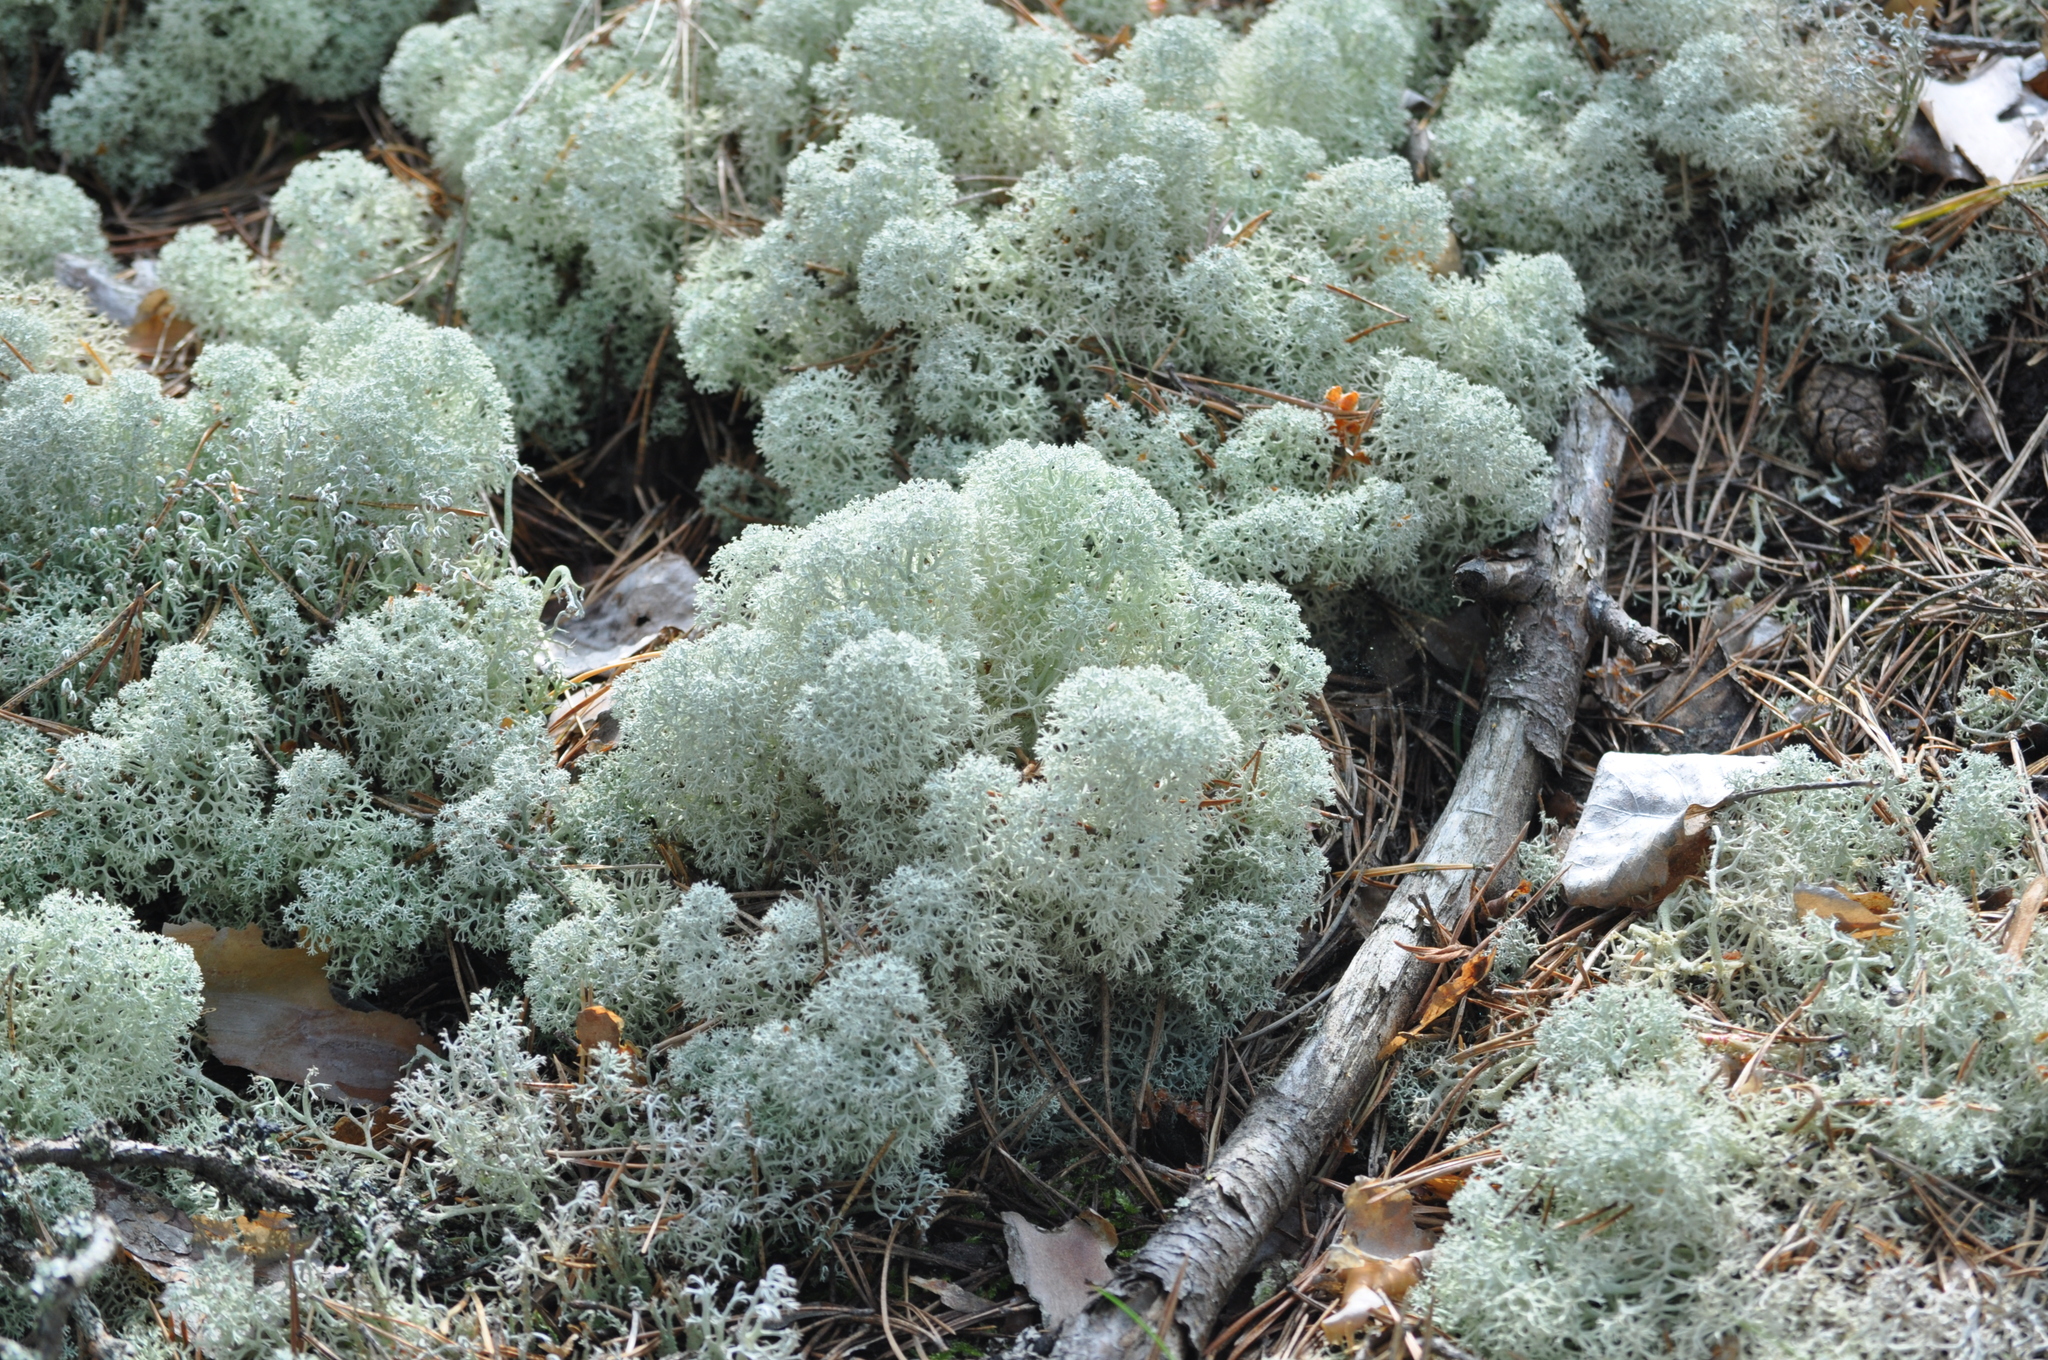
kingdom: Fungi
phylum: Ascomycota
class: Lecanoromycetes
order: Lecanorales
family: Cladoniaceae
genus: Cladonia
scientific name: Cladonia stellaris
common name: Star-tipped reindeer lichen
